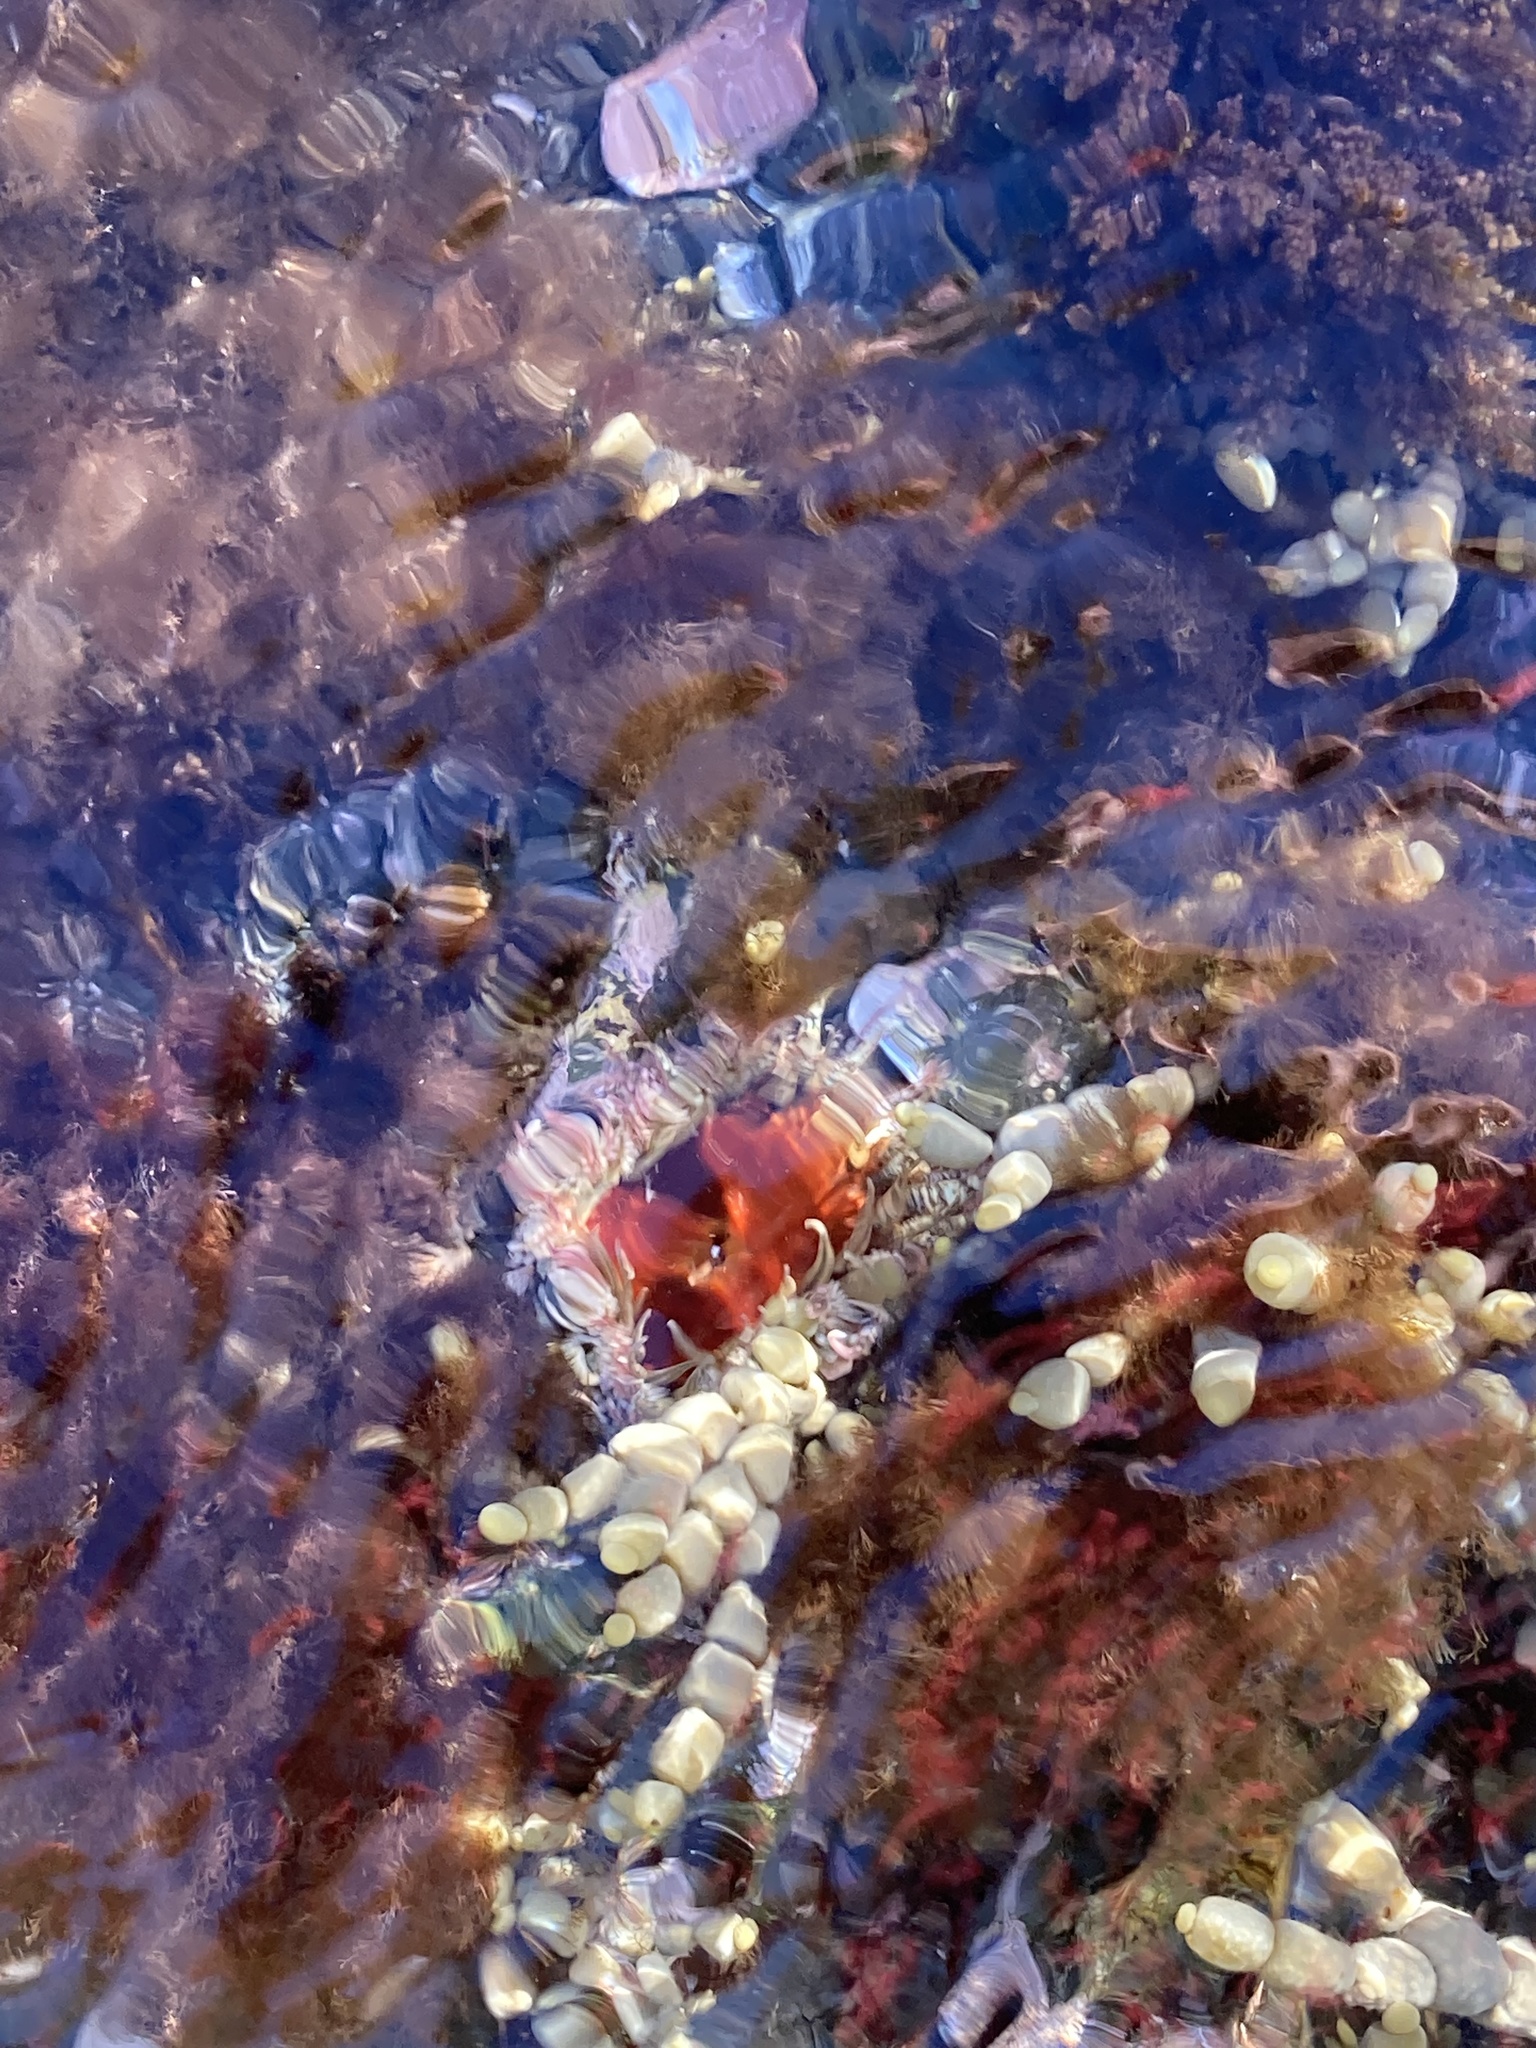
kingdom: Animalia
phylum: Cnidaria
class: Anthozoa
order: Actiniaria
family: Actiniidae
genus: Oulactis
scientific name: Oulactis muscosa
